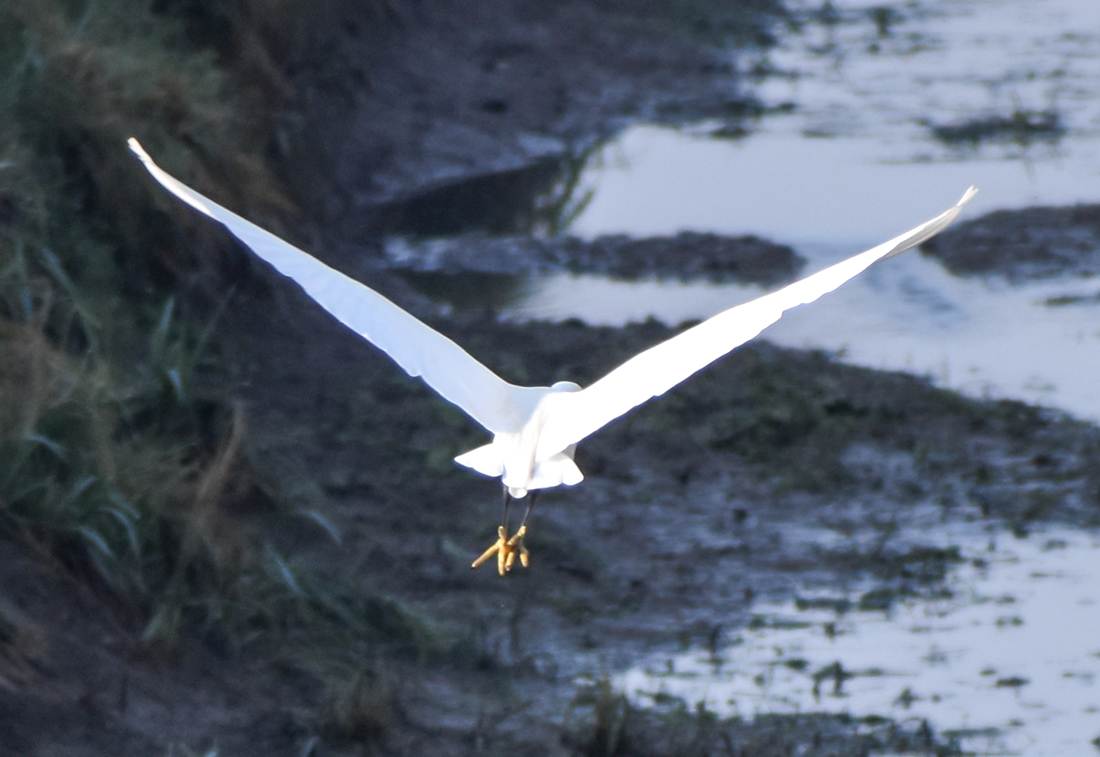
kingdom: Animalia
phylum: Chordata
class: Aves
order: Pelecaniformes
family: Ardeidae
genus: Egretta
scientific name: Egretta garzetta
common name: Little egret
